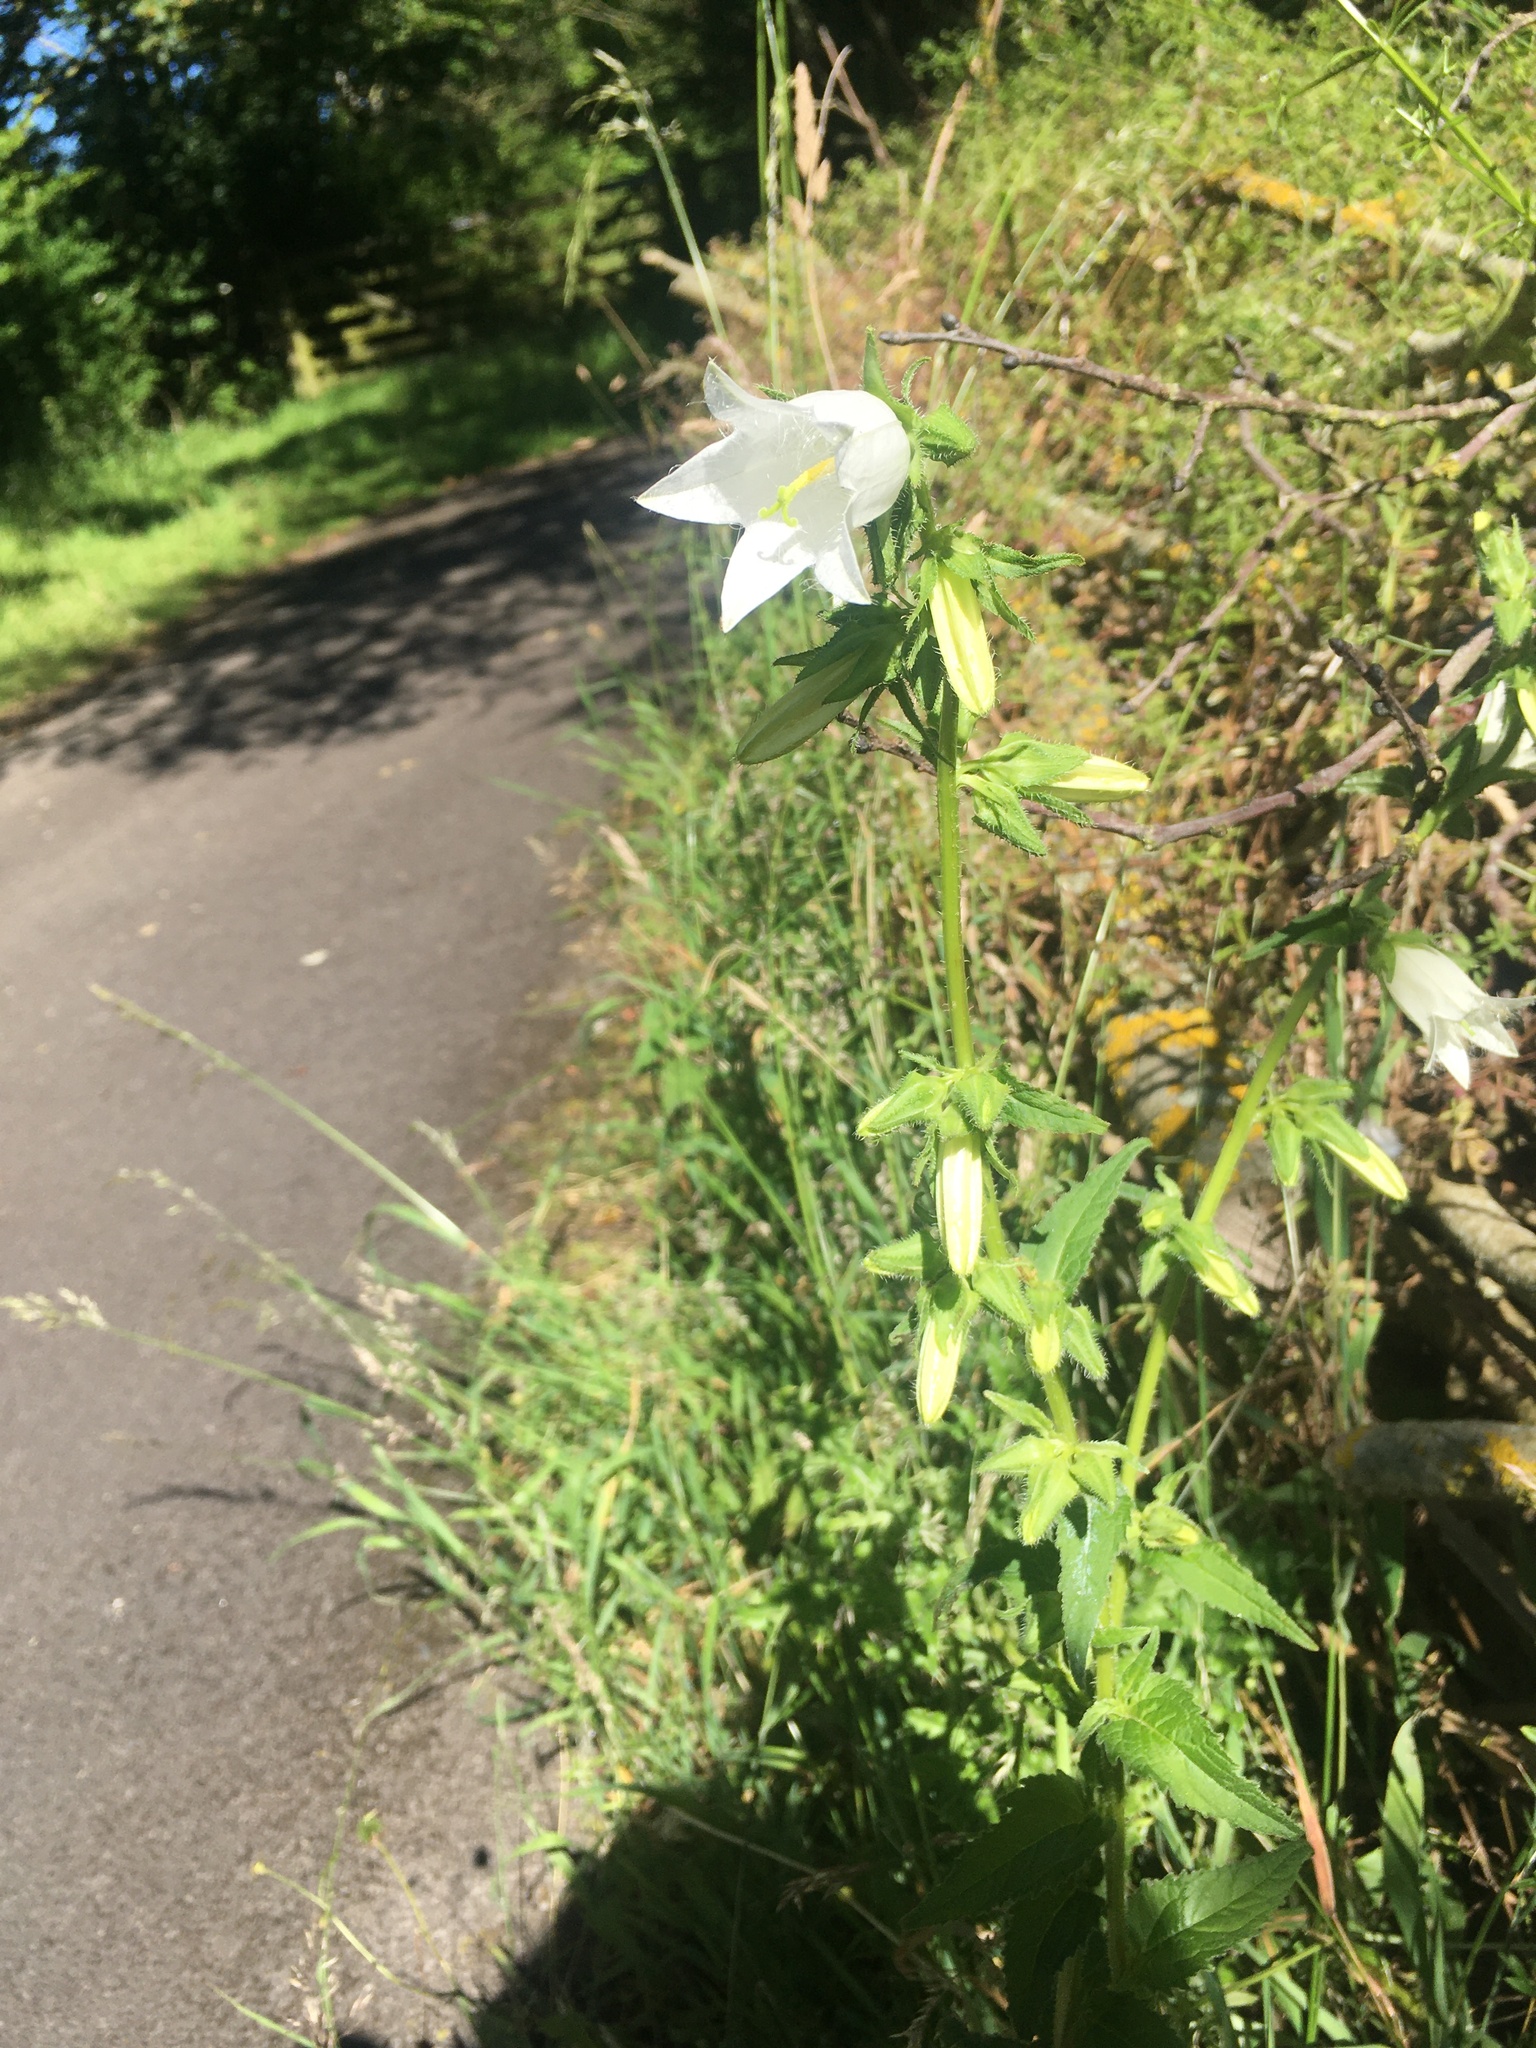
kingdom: Plantae
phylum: Tracheophyta
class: Magnoliopsida
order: Asterales
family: Campanulaceae
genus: Campanula
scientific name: Campanula trachelium
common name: Nettle-leaved bellflower
